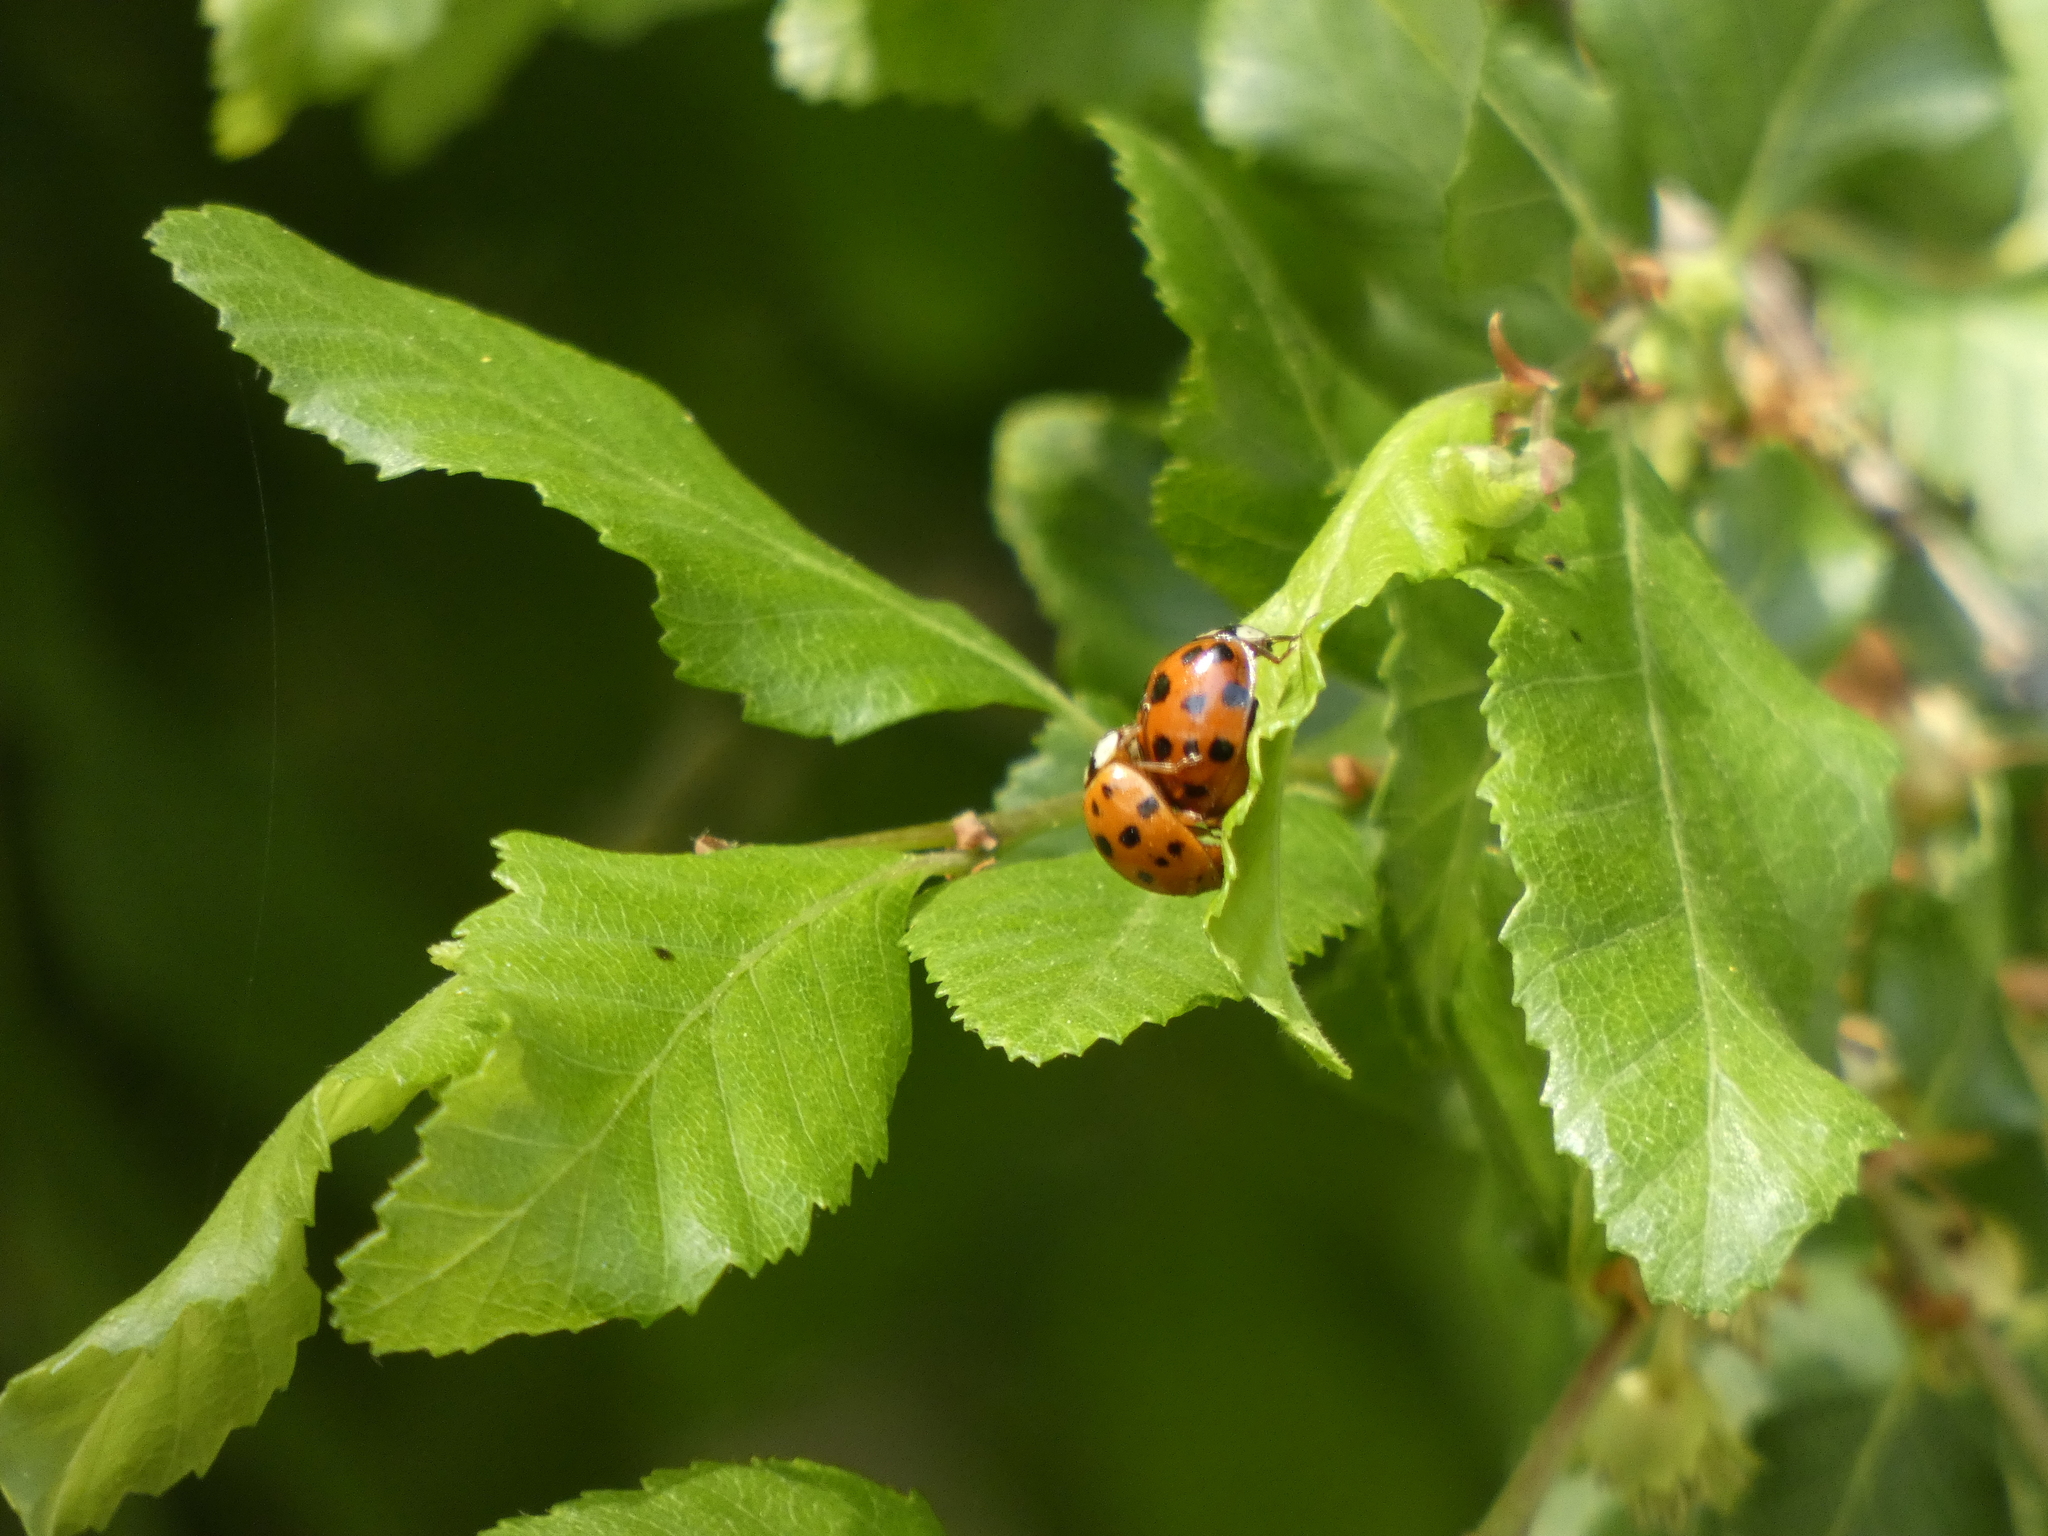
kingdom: Animalia
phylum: Arthropoda
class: Insecta
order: Coleoptera
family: Coccinellidae
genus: Harmonia
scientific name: Harmonia axyridis
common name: Harlequin ladybird
